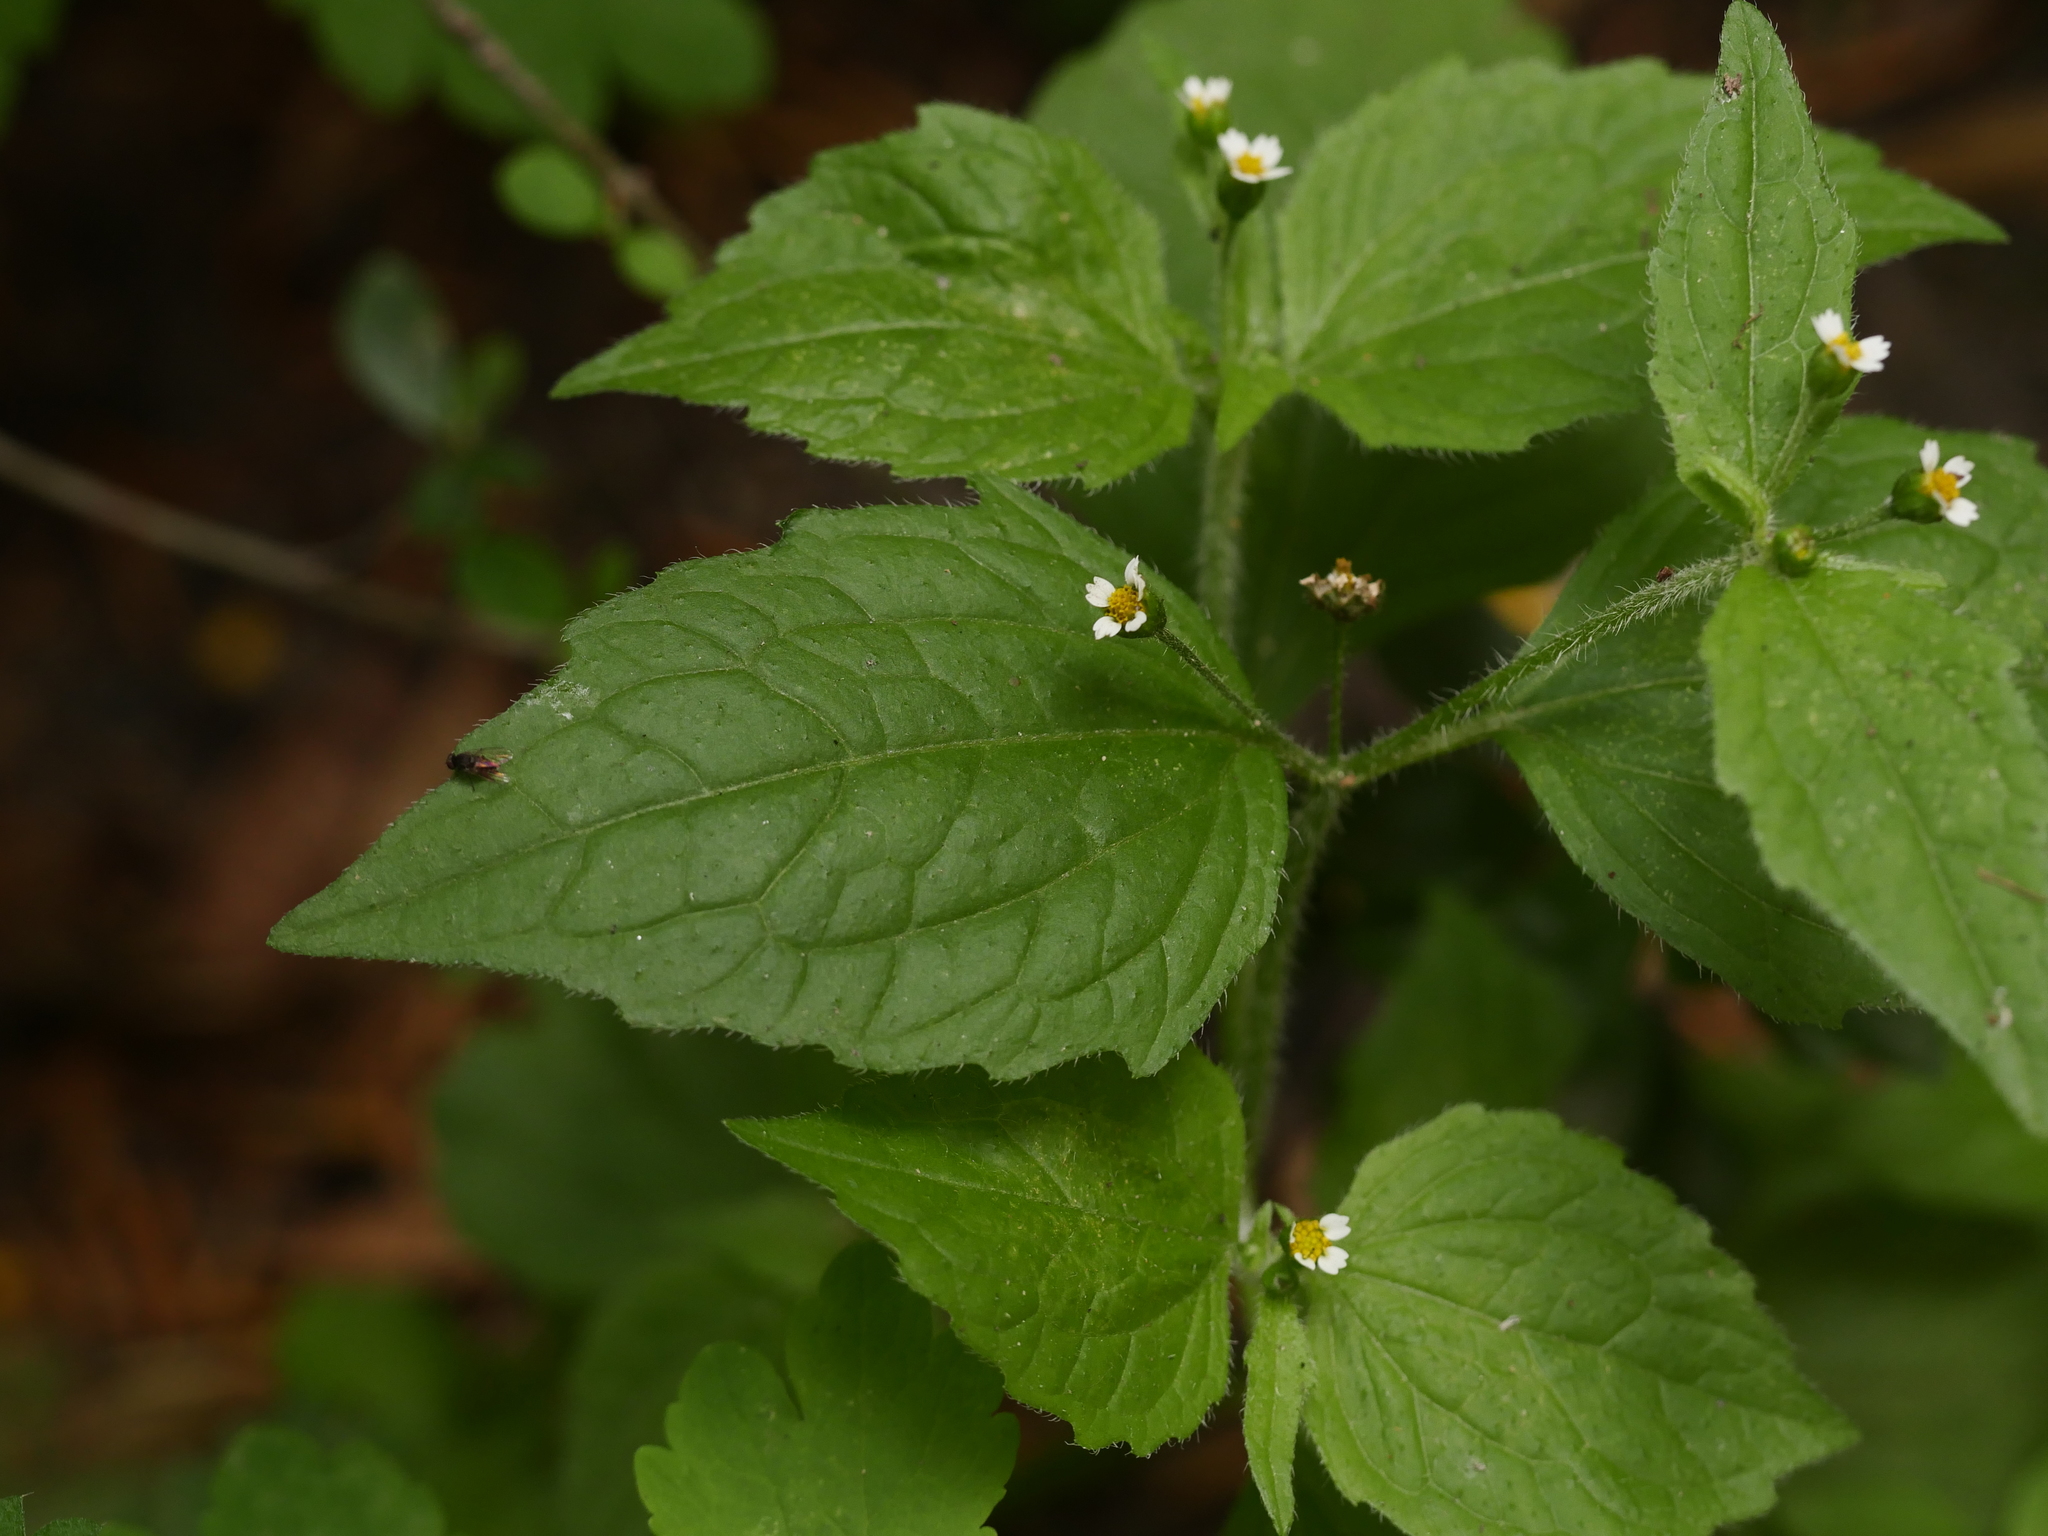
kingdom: Plantae
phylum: Tracheophyta
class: Magnoliopsida
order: Asterales
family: Asteraceae
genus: Galinsoga
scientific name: Galinsoga quadriradiata
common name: Shaggy soldier
